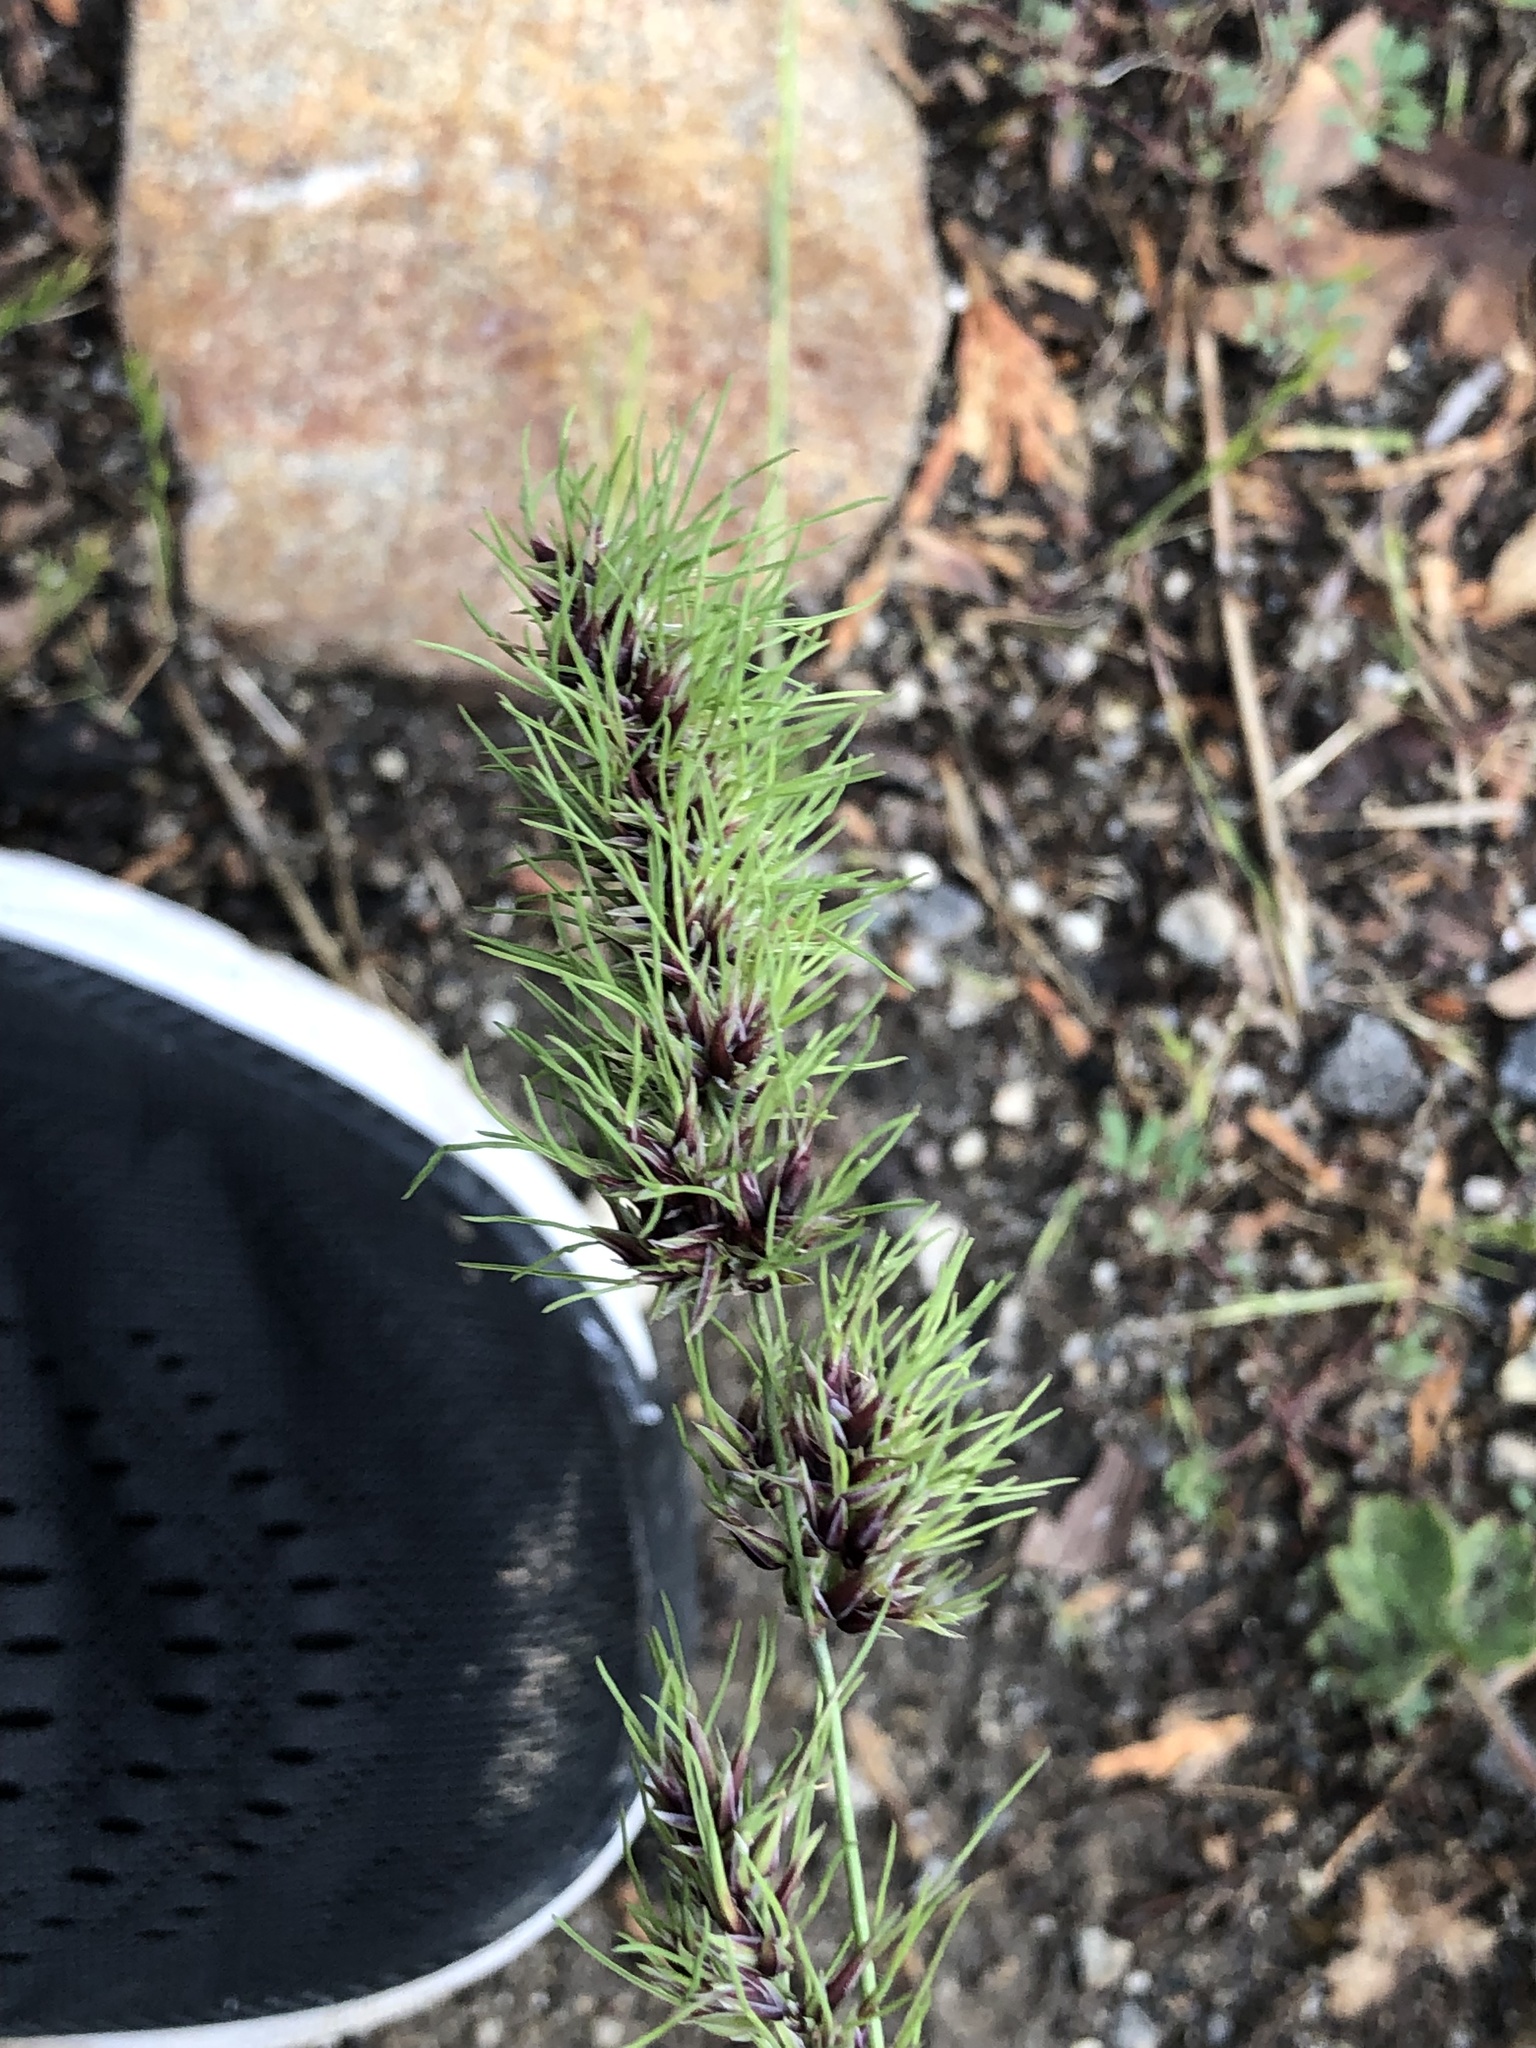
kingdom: Plantae
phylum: Tracheophyta
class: Liliopsida
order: Poales
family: Poaceae
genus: Poa
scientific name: Poa bulbosa
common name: Bulbous bluegrass
